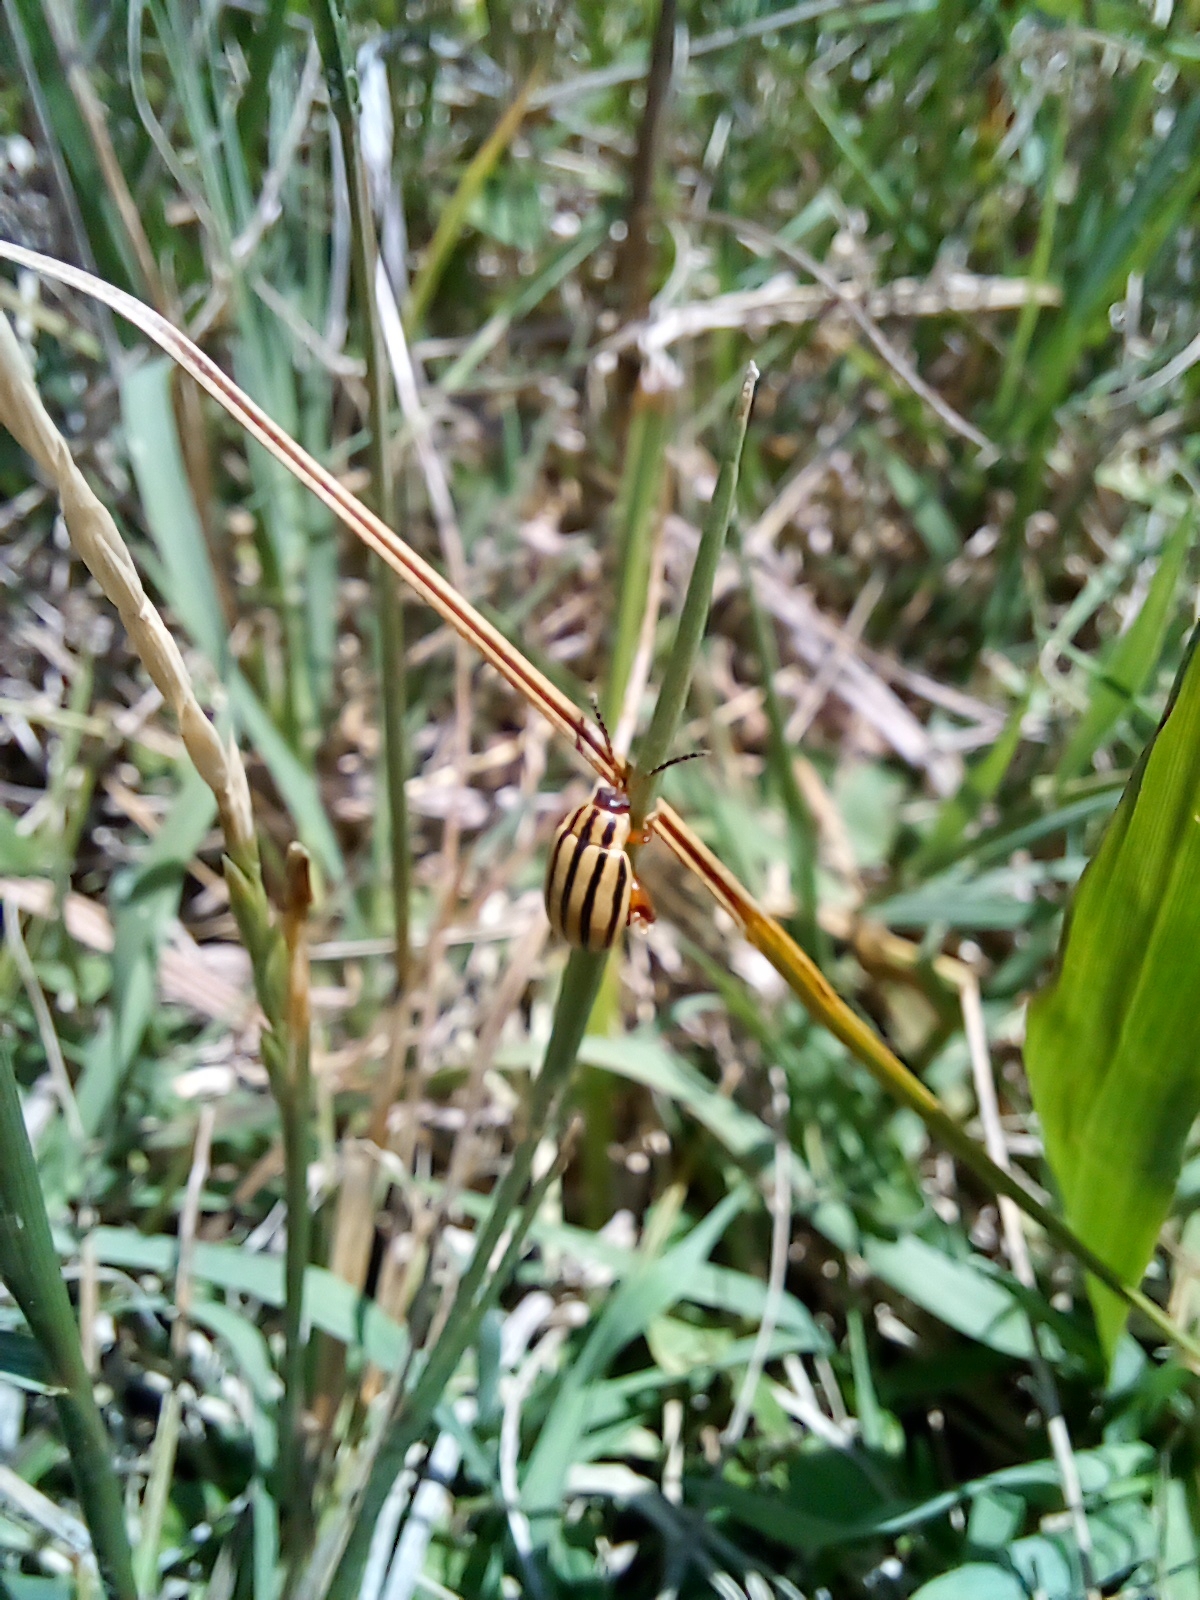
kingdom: Animalia
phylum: Arthropoda
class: Insecta
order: Coleoptera
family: Chrysomelidae
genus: Kuschelina
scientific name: Kuschelina
